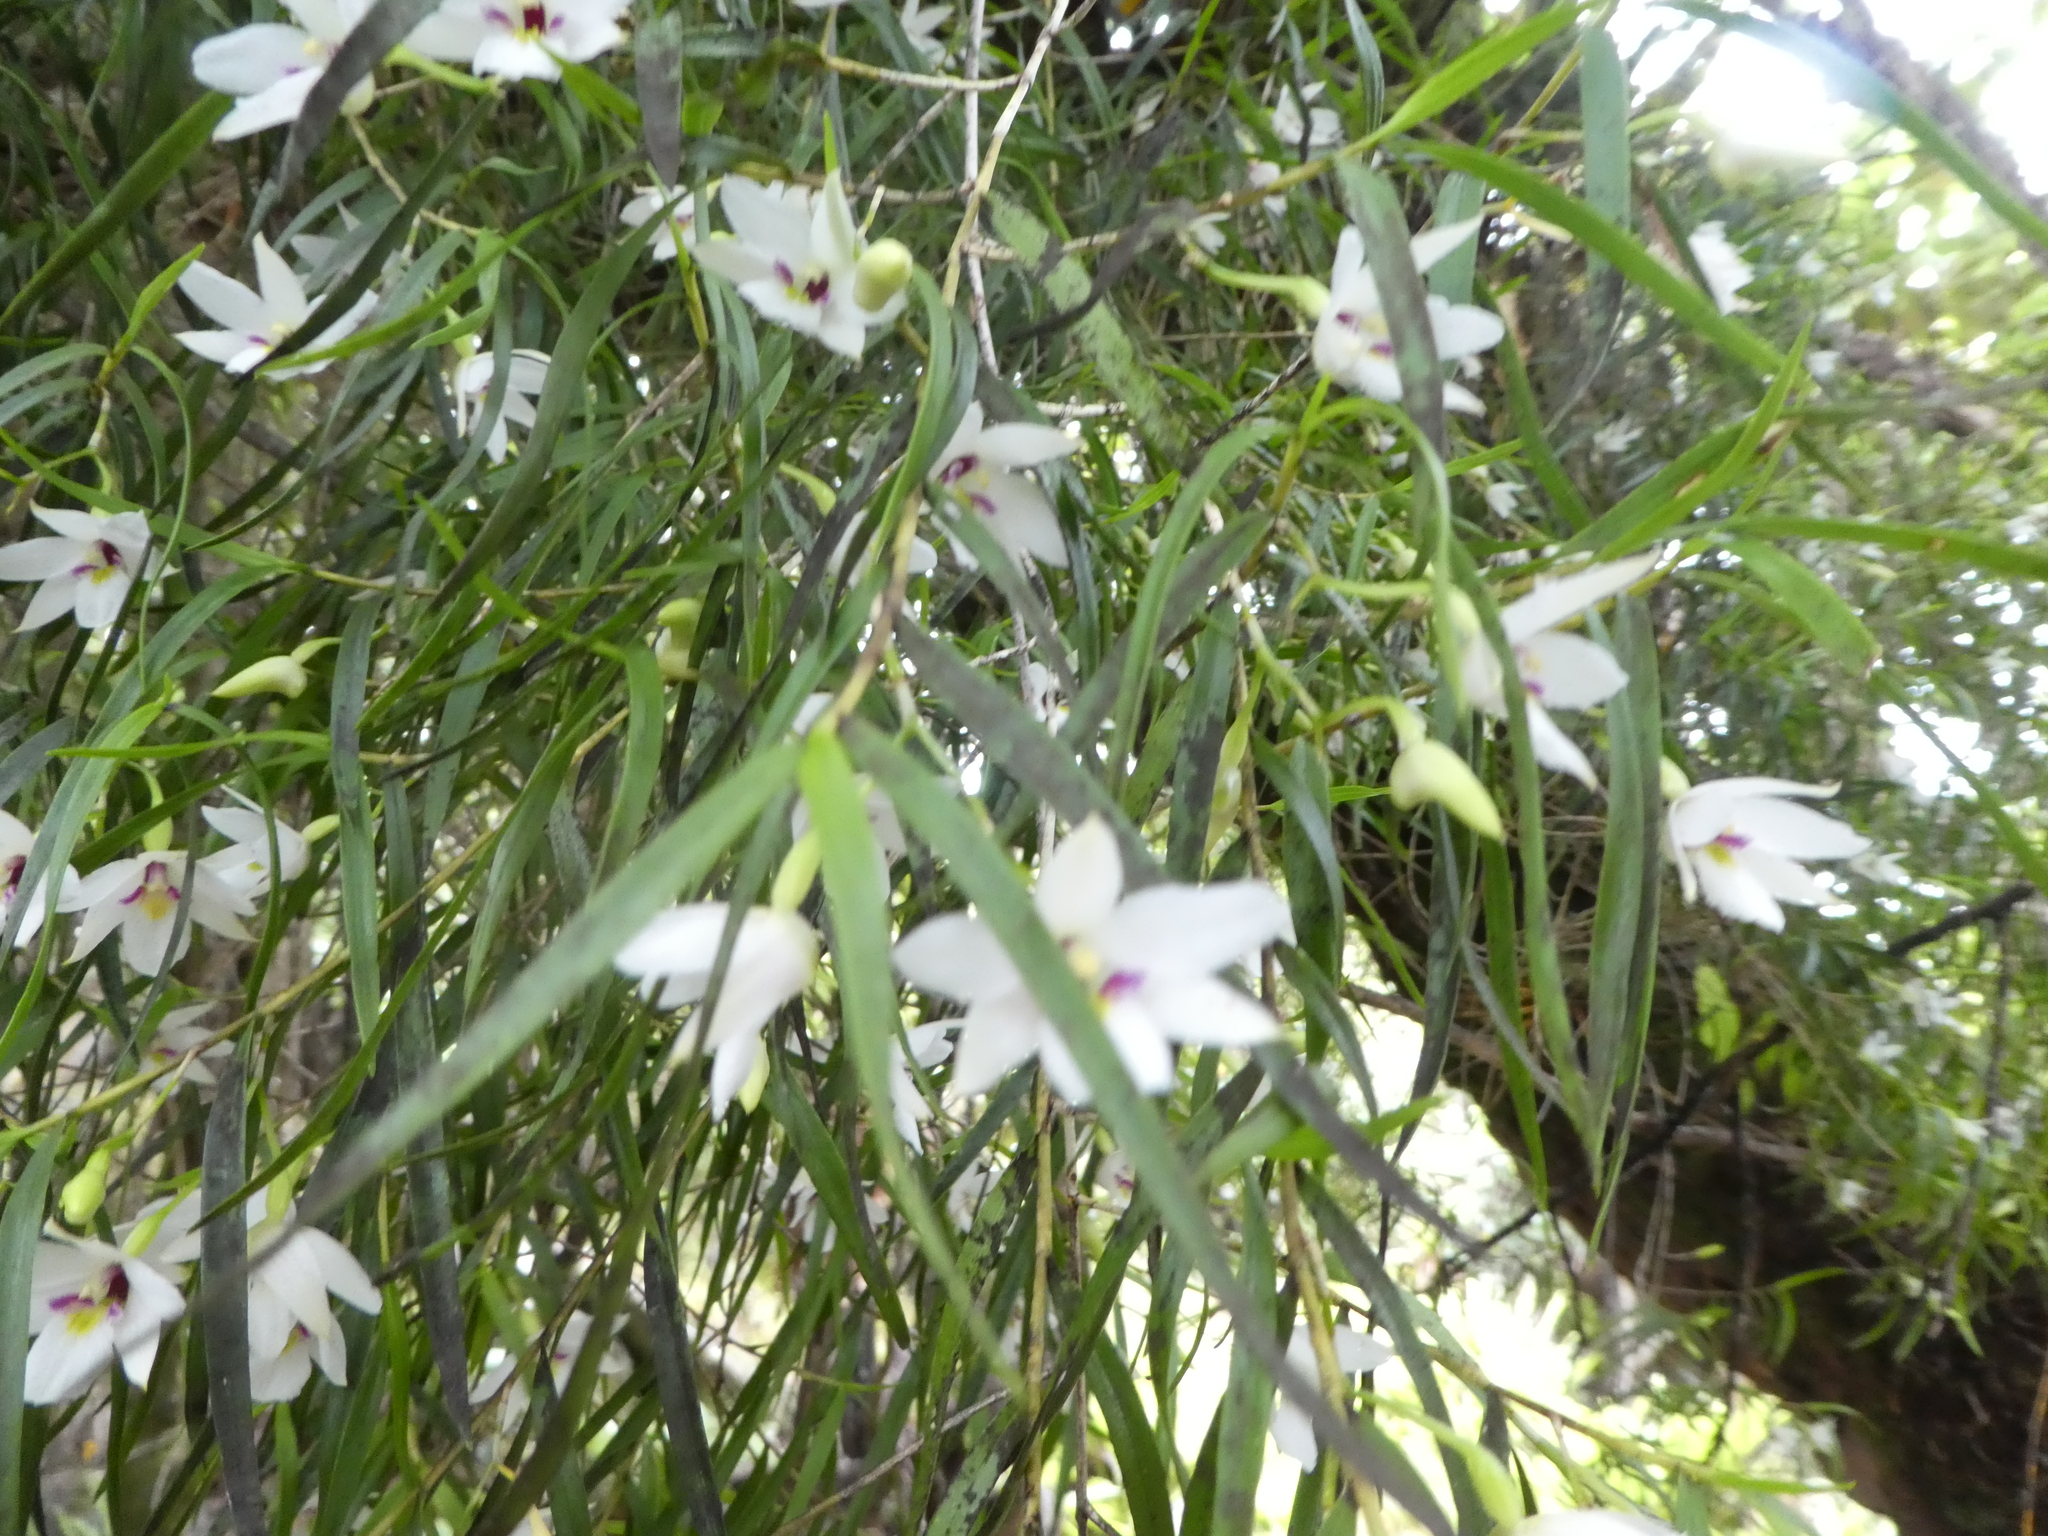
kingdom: Plantae
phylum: Tracheophyta
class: Liliopsida
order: Asparagales
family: Orchidaceae
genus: Dendrobium
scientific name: Dendrobium cunninghamii
